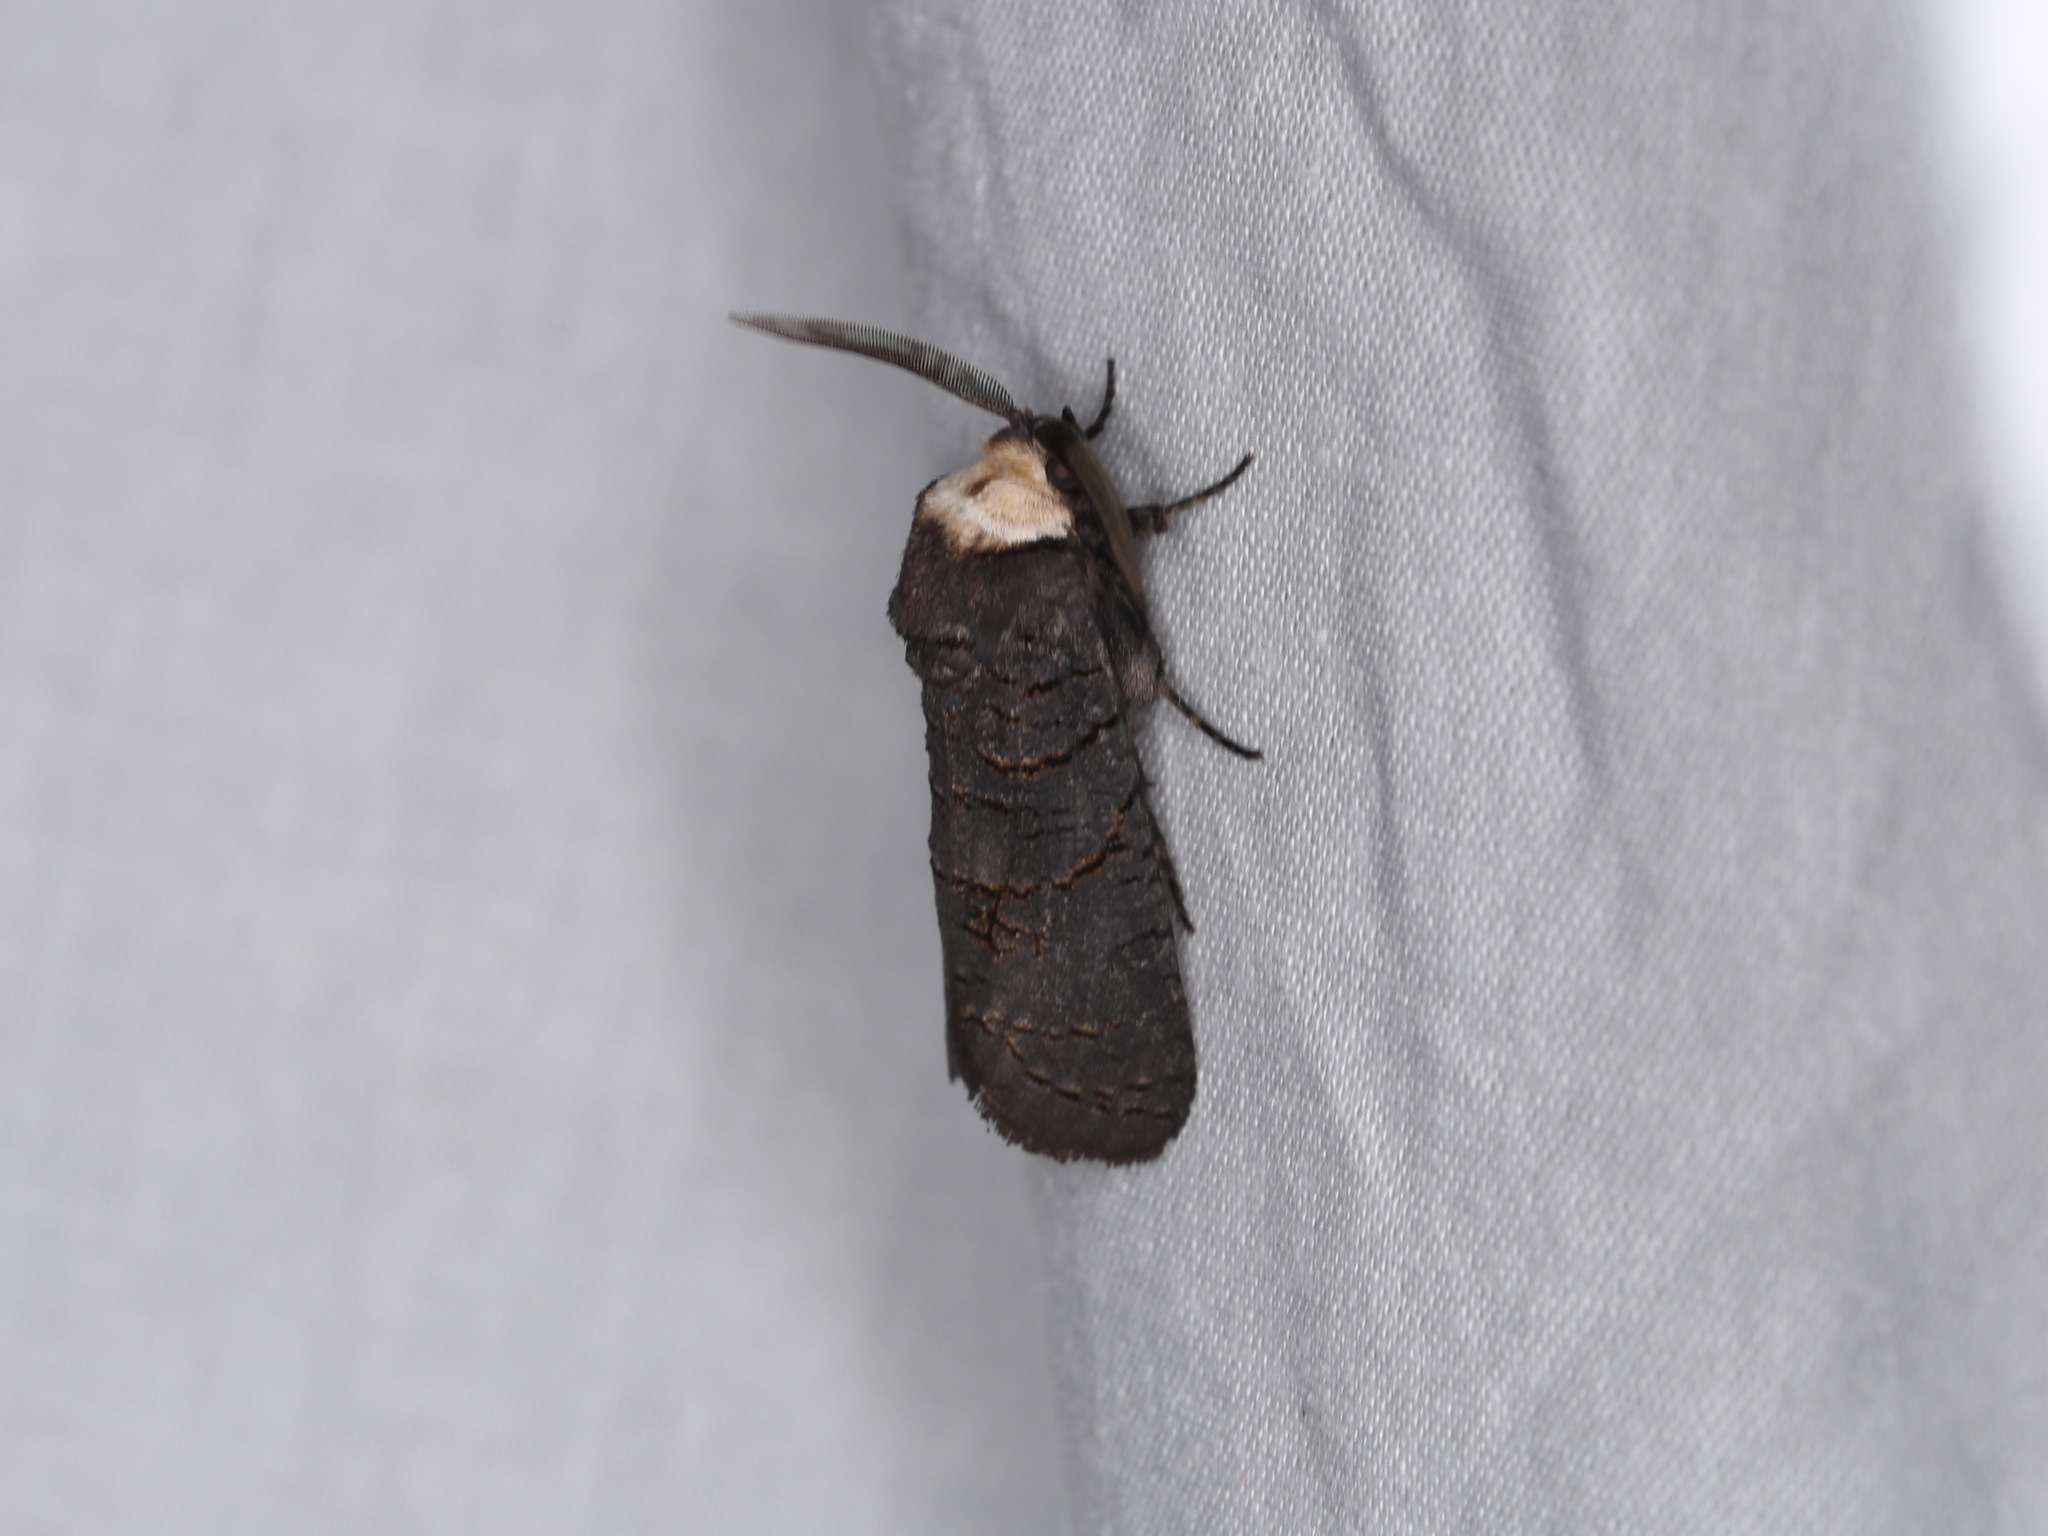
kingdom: Animalia
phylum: Arthropoda
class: Insecta
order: Lepidoptera
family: Cossidae
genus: Culama
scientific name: Culama crepera
